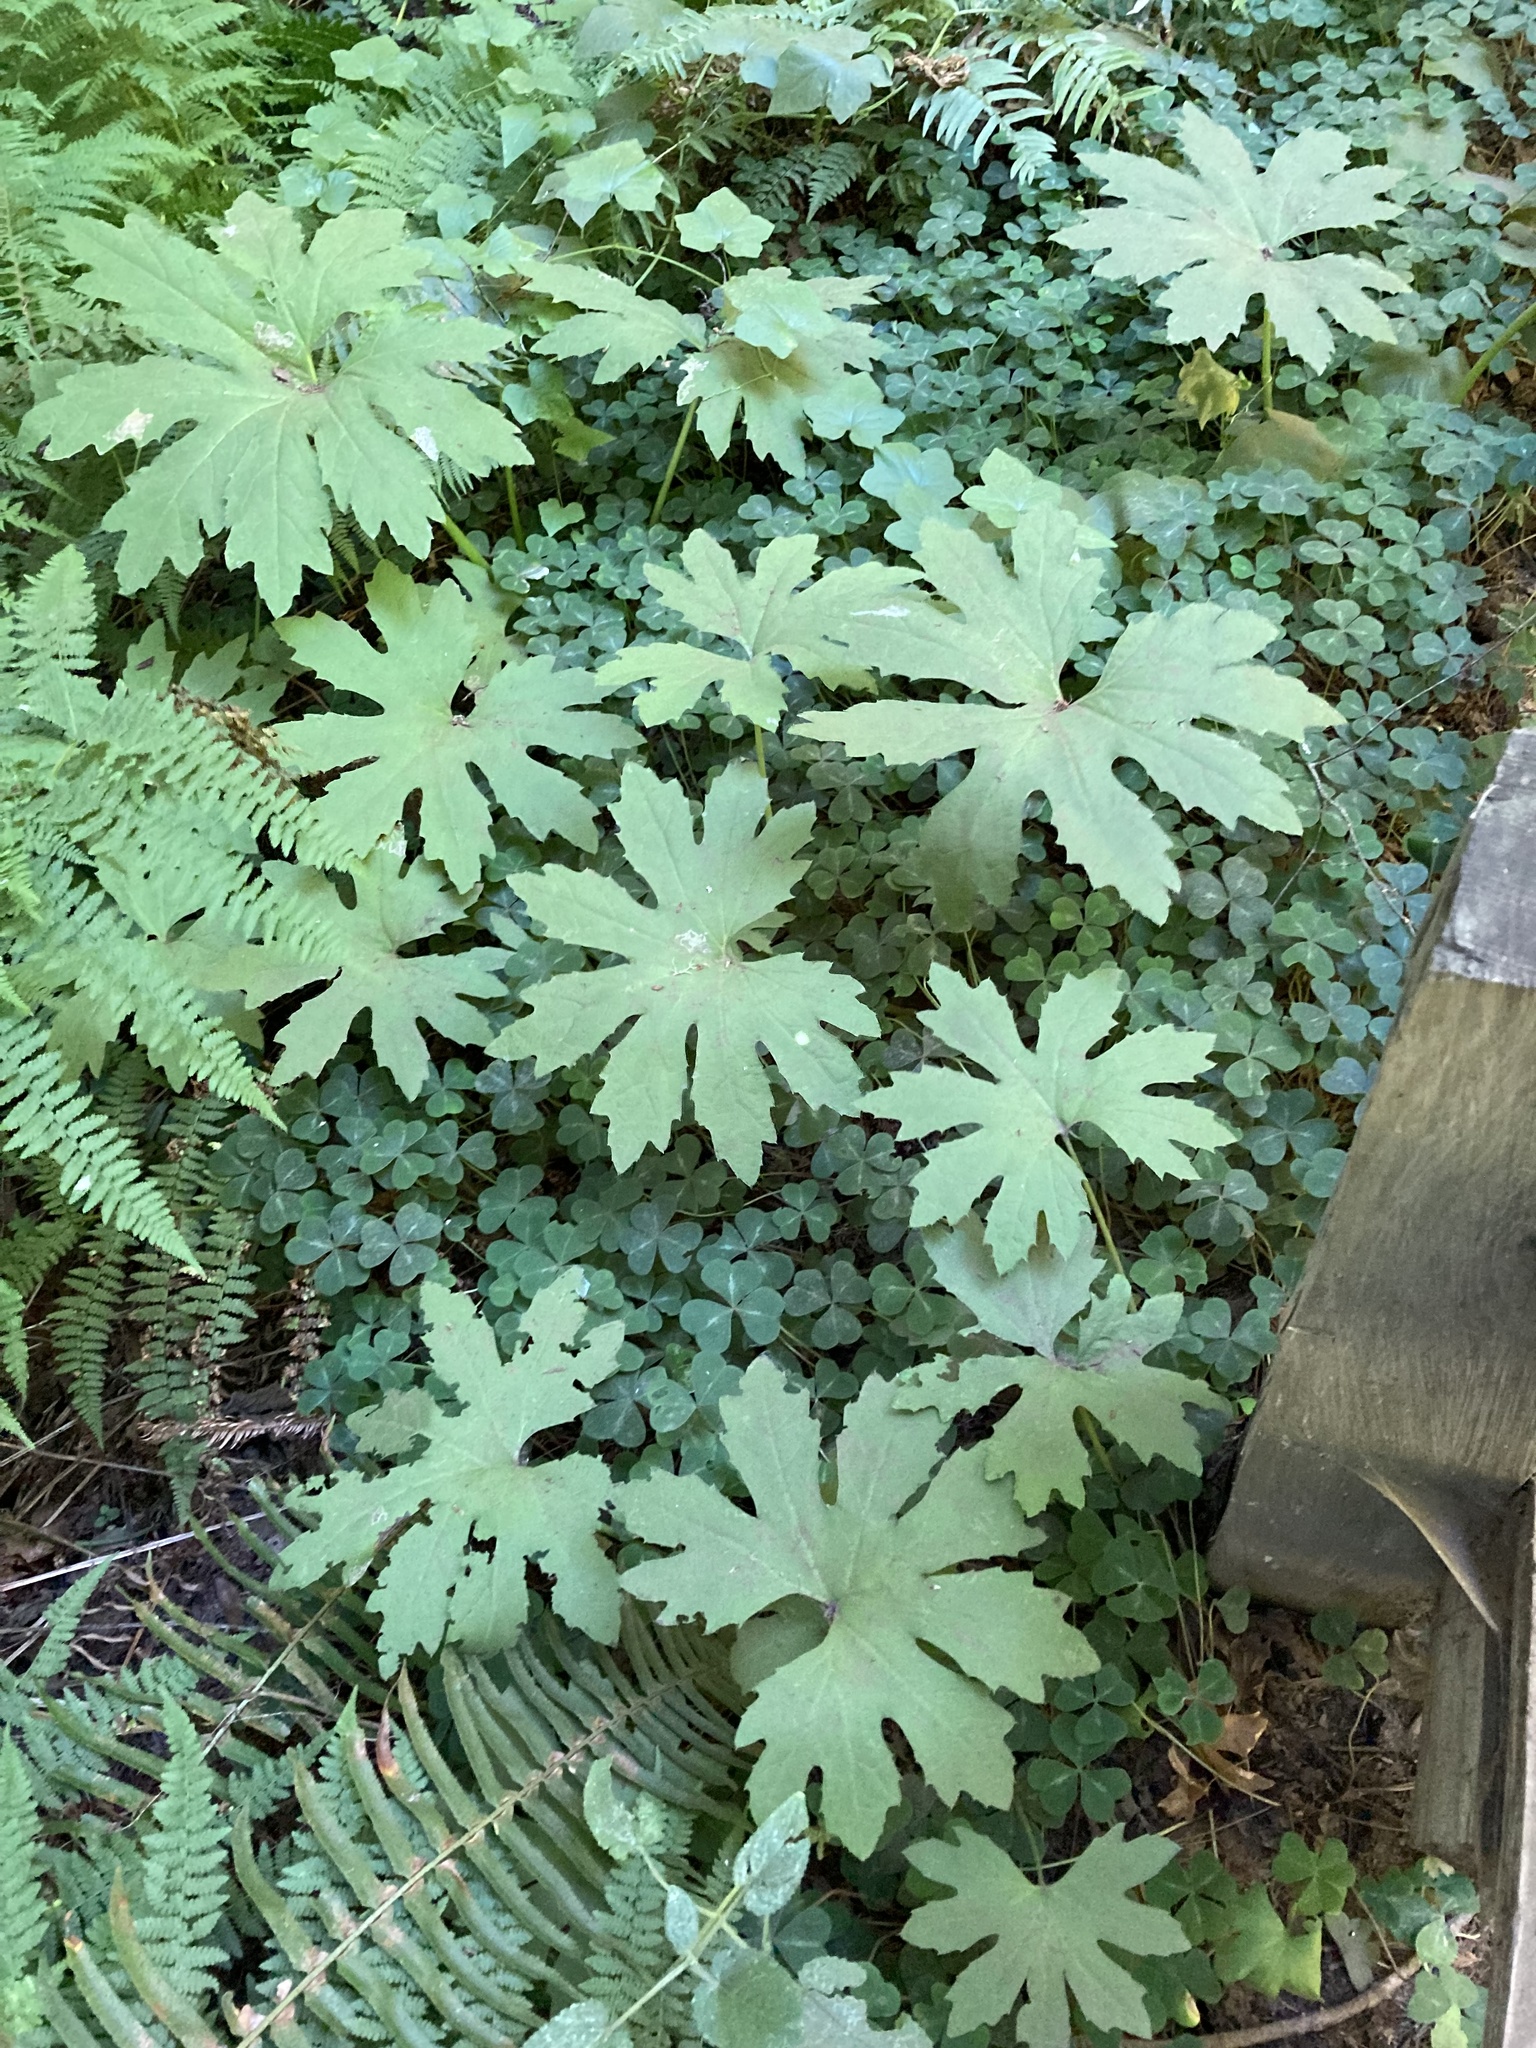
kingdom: Plantae
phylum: Tracheophyta
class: Magnoliopsida
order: Asterales
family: Asteraceae
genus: Petasites
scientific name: Petasites frigidus
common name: Arctic butterbur
